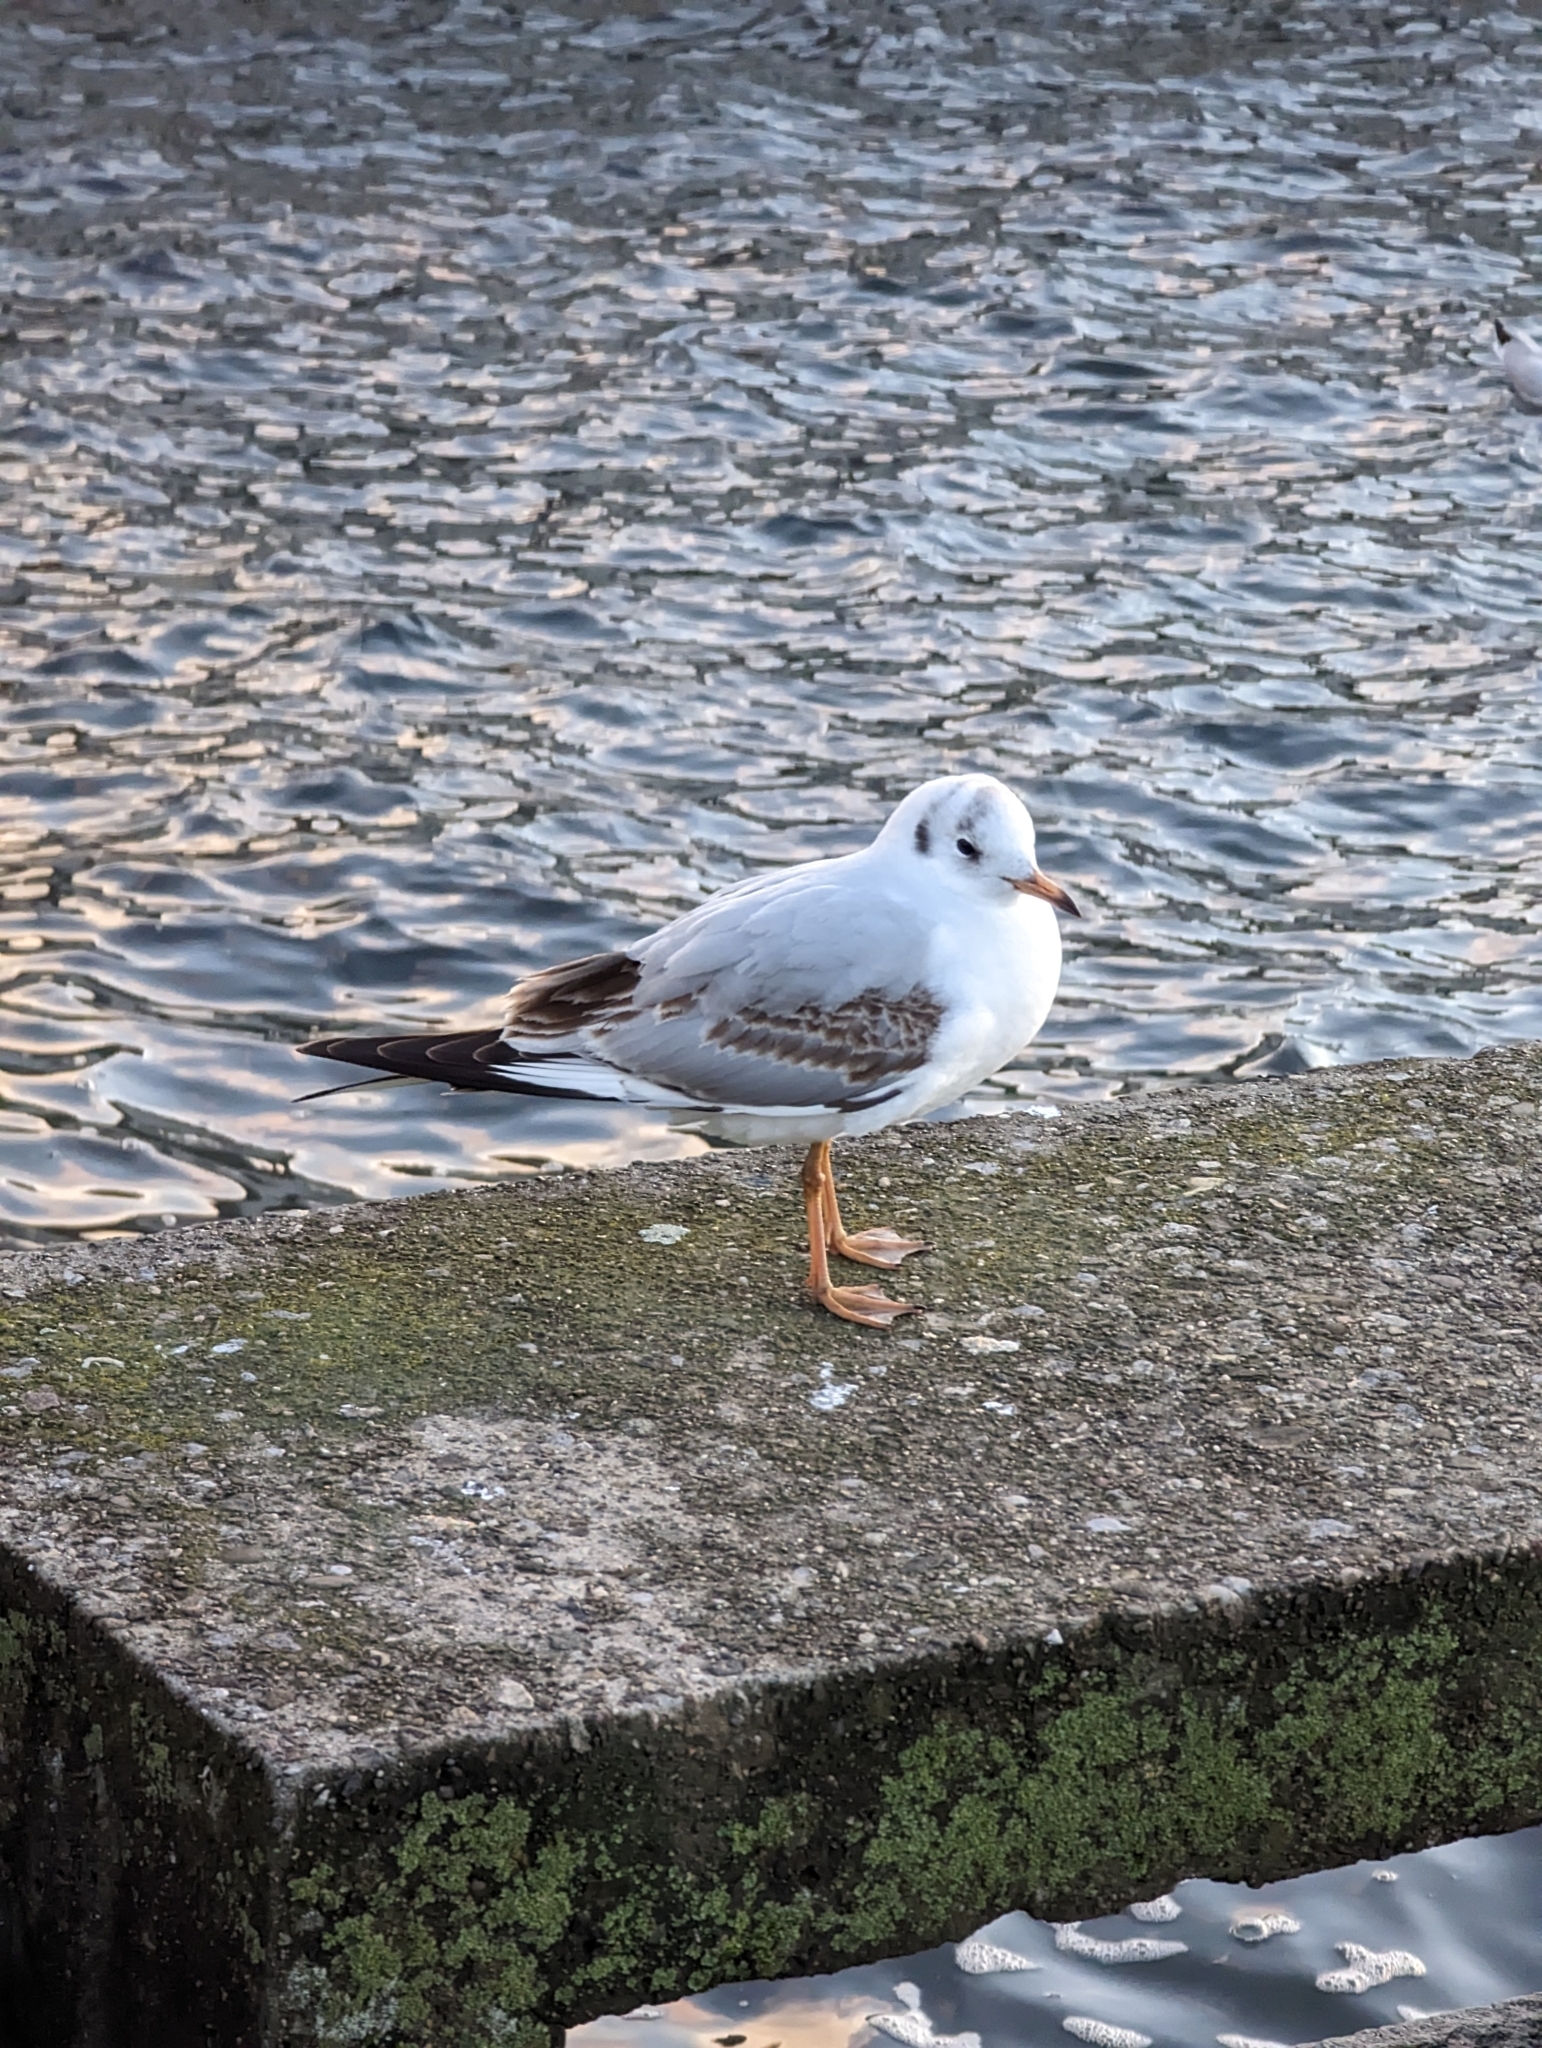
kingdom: Animalia
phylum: Chordata
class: Aves
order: Charadriiformes
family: Laridae
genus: Chroicocephalus
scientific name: Chroicocephalus ridibundus
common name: Black-headed gull
